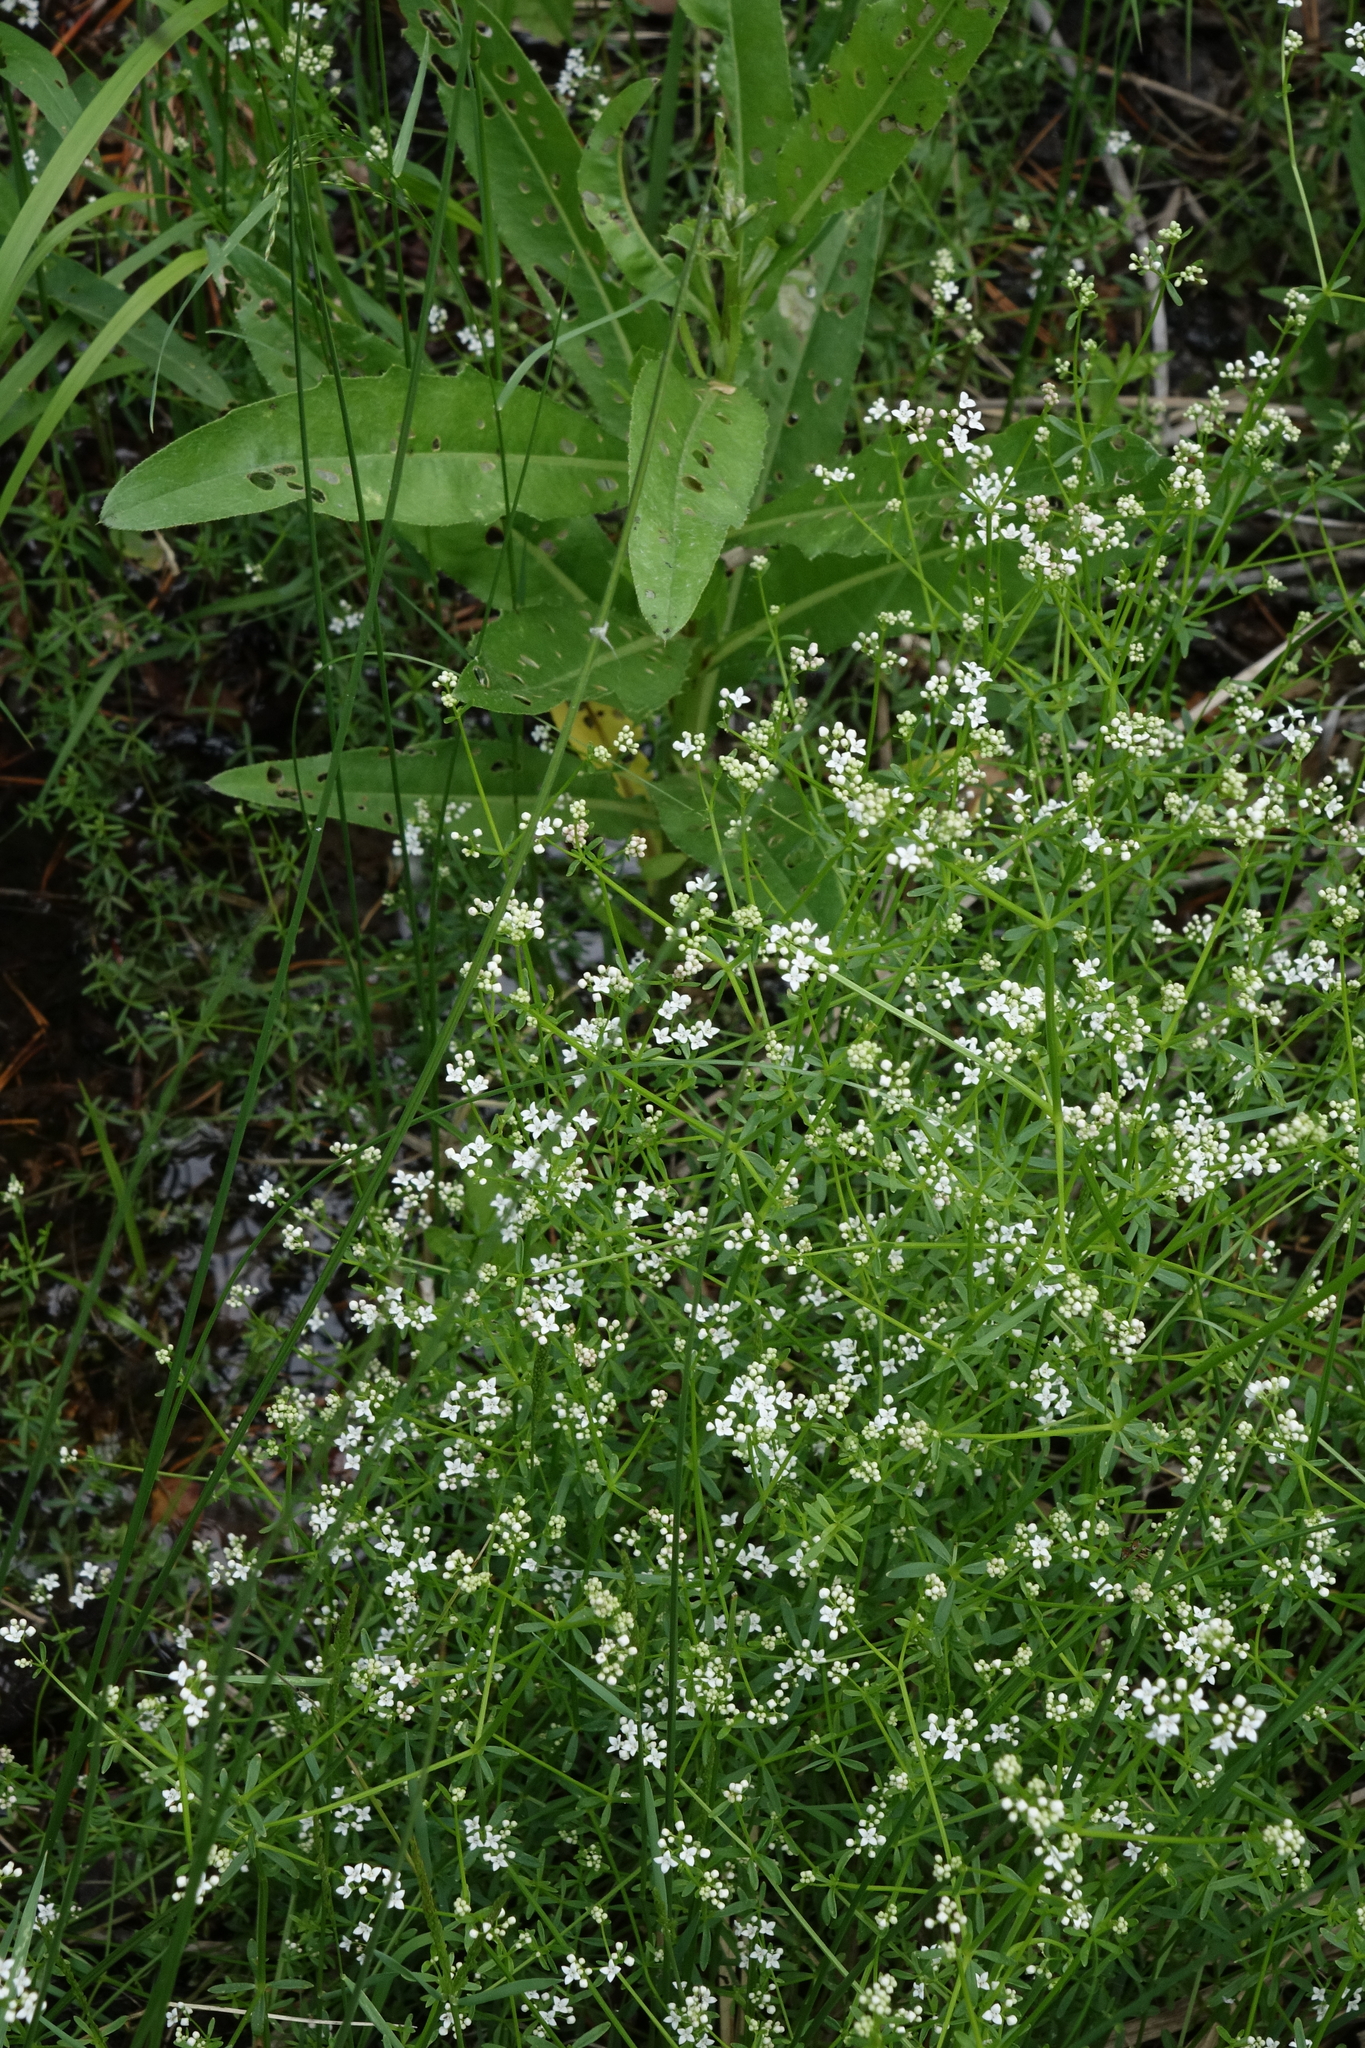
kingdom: Plantae
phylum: Tracheophyta
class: Magnoliopsida
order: Gentianales
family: Rubiaceae
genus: Galium
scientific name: Galium palustre
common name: Common marsh-bedstraw
